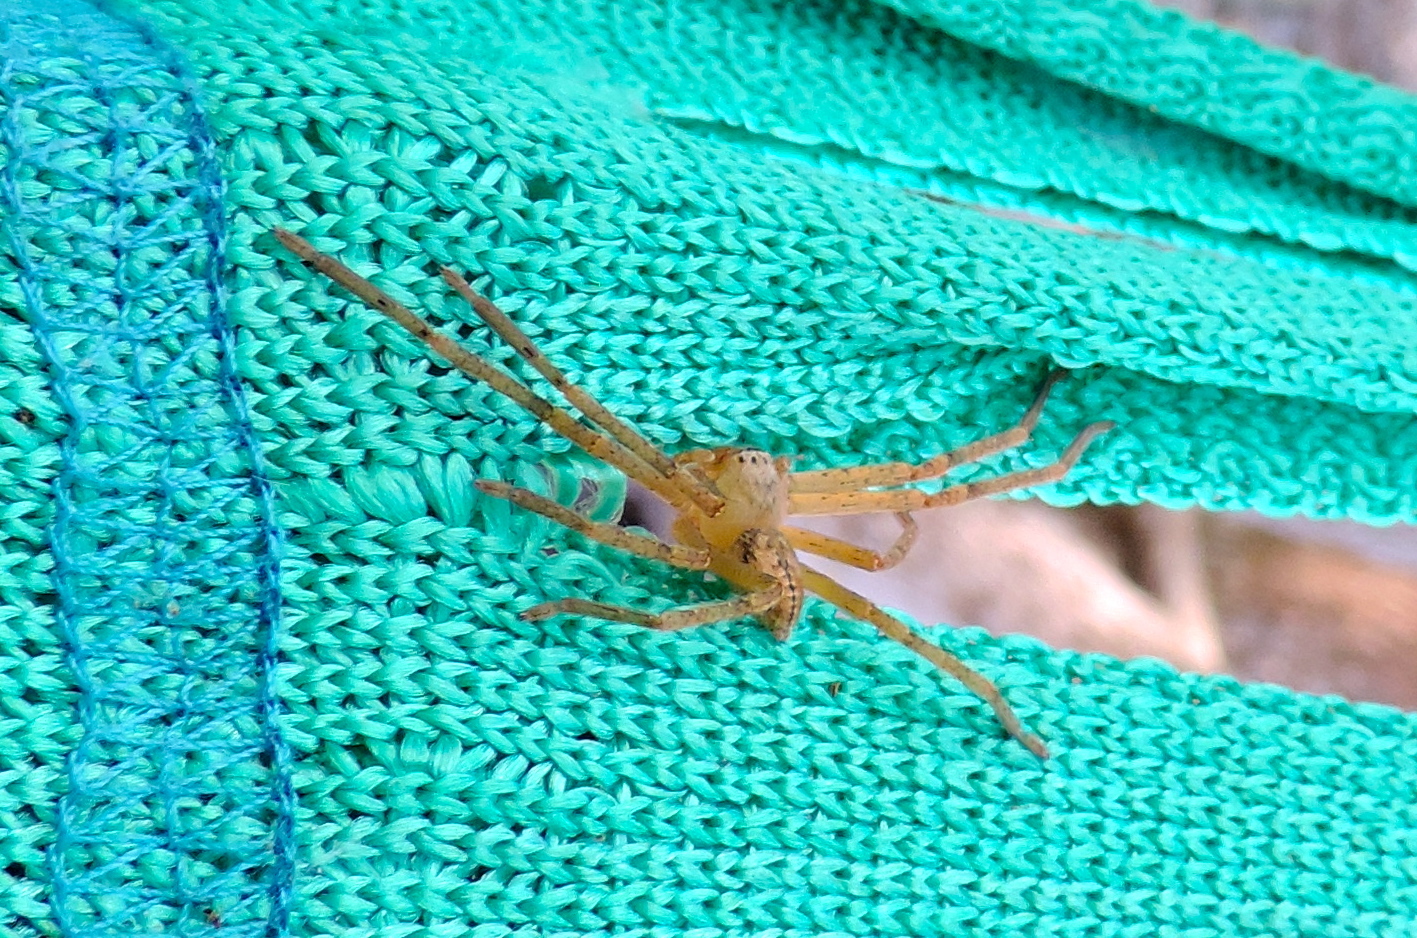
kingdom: Animalia
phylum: Arthropoda
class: Arachnida
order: Araneae
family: Sparassidae
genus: Curicaberis
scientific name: Curicaberis culiacan
